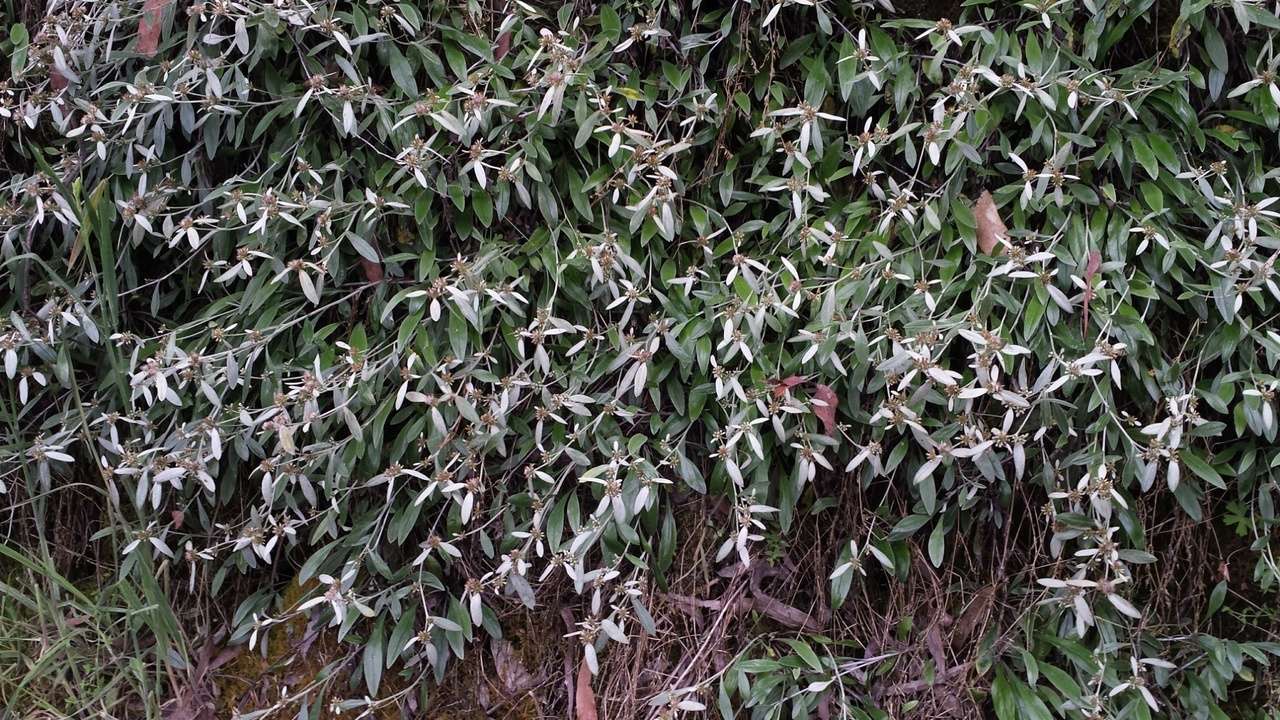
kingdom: Plantae
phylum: Tracheophyta
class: Magnoliopsida
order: Asterales
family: Asteraceae
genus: Euchiton
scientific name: Euchiton umbricola
